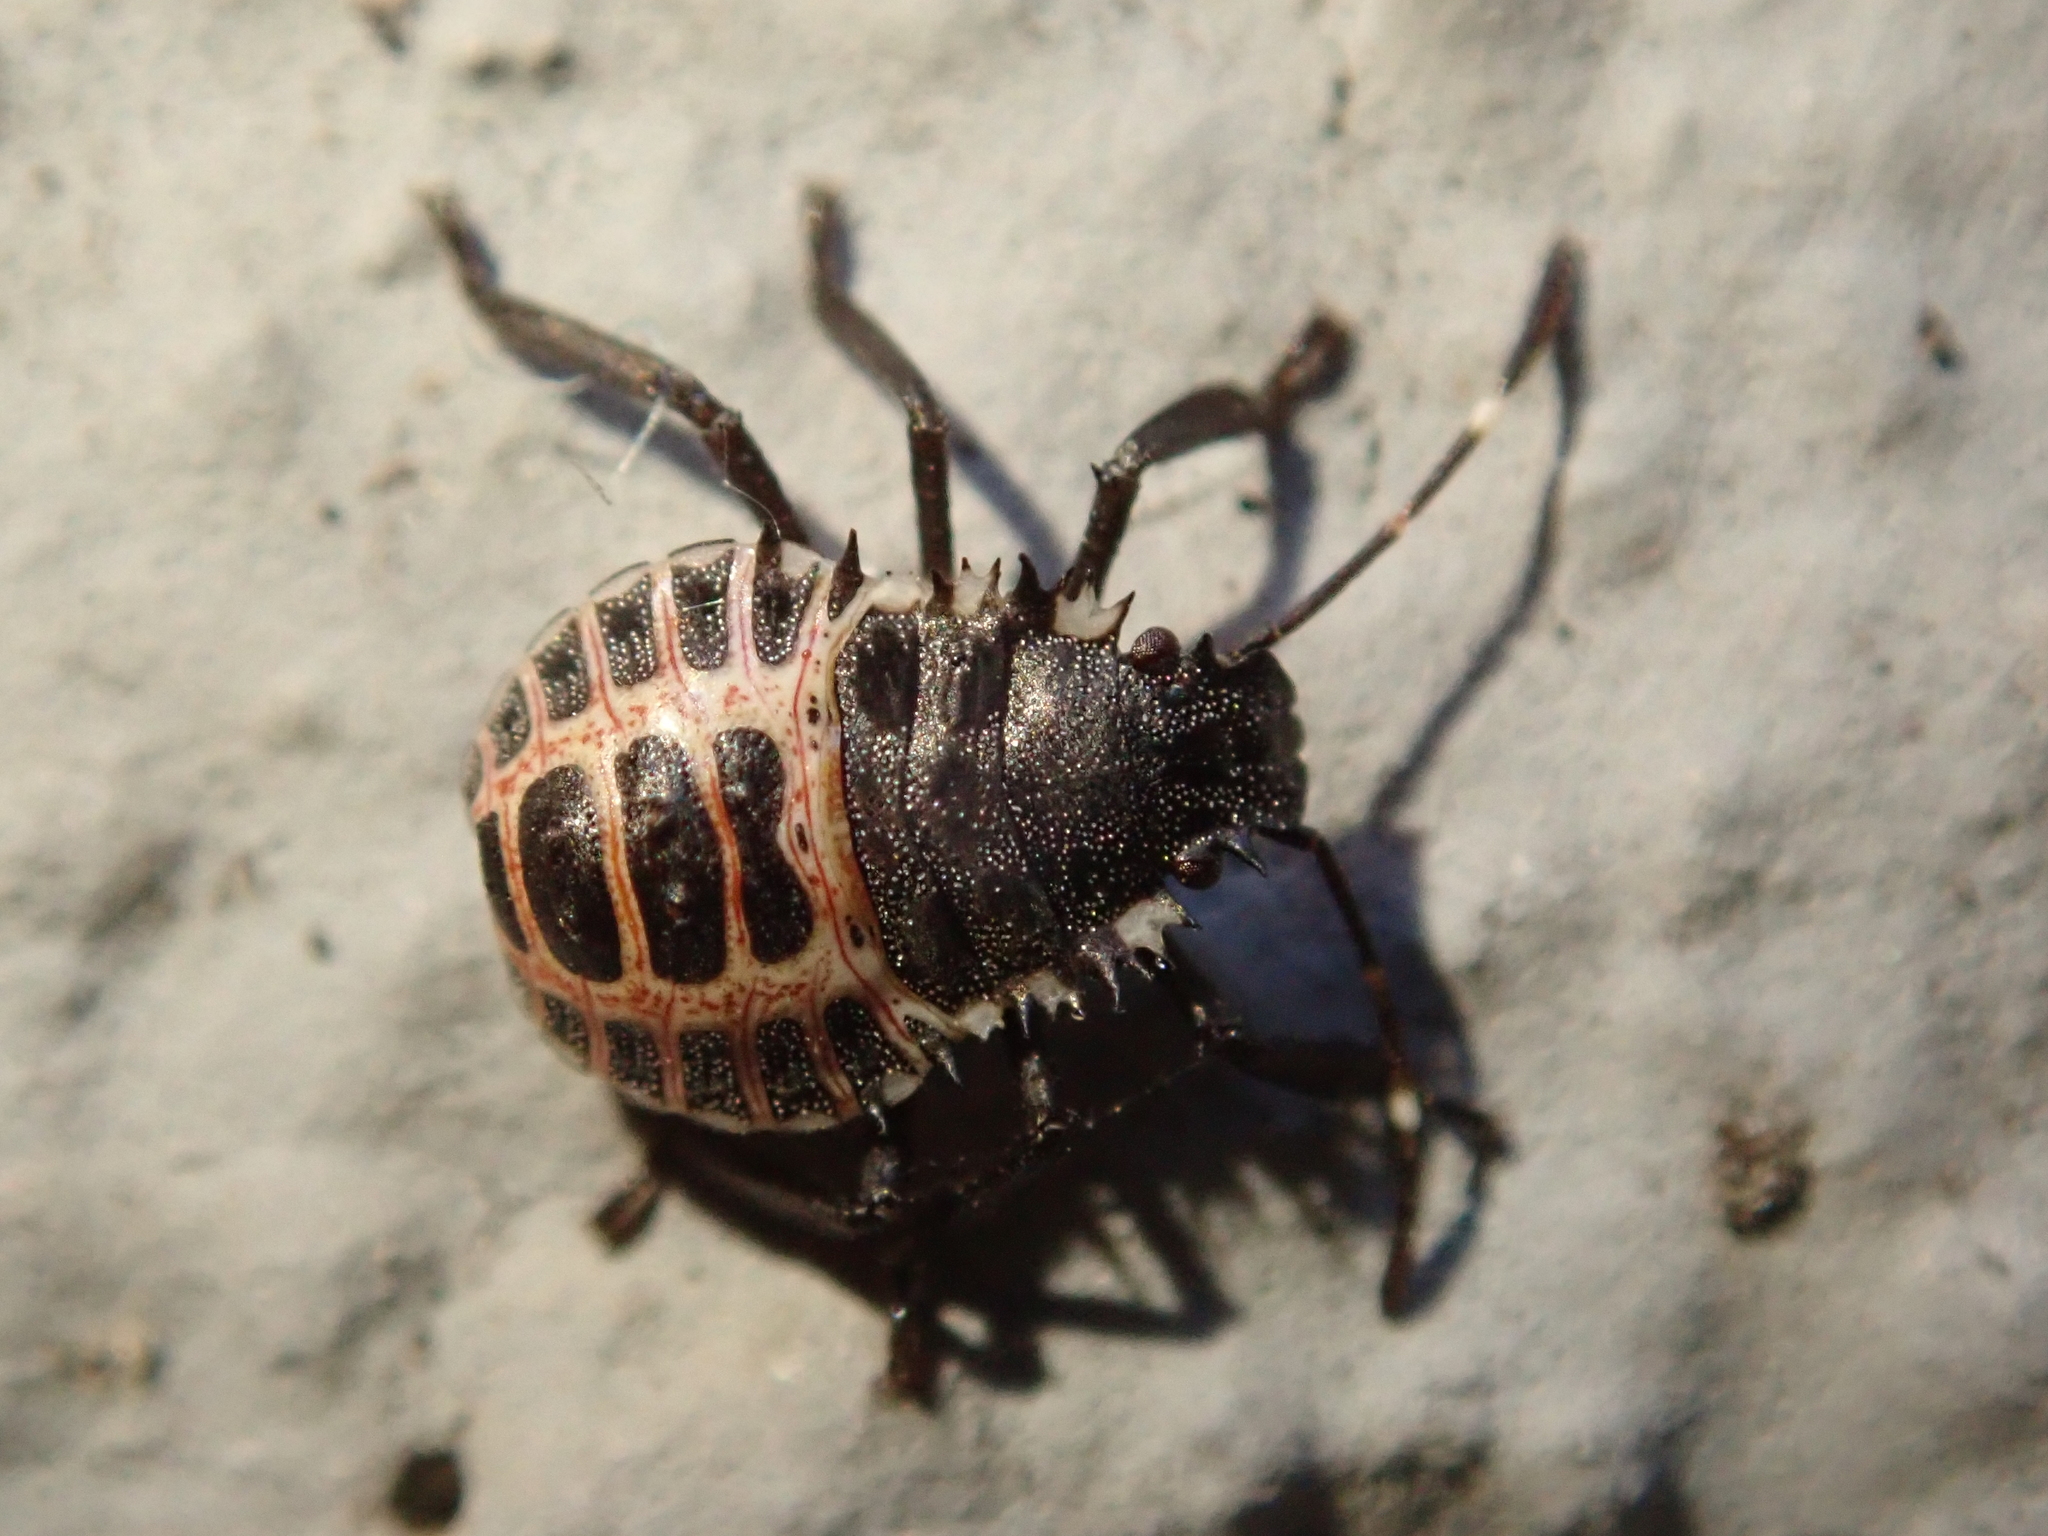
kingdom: Animalia
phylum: Arthropoda
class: Insecta
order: Hemiptera
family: Pentatomidae
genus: Halyomorpha
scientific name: Halyomorpha halys
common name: Brown marmorated stink bug
